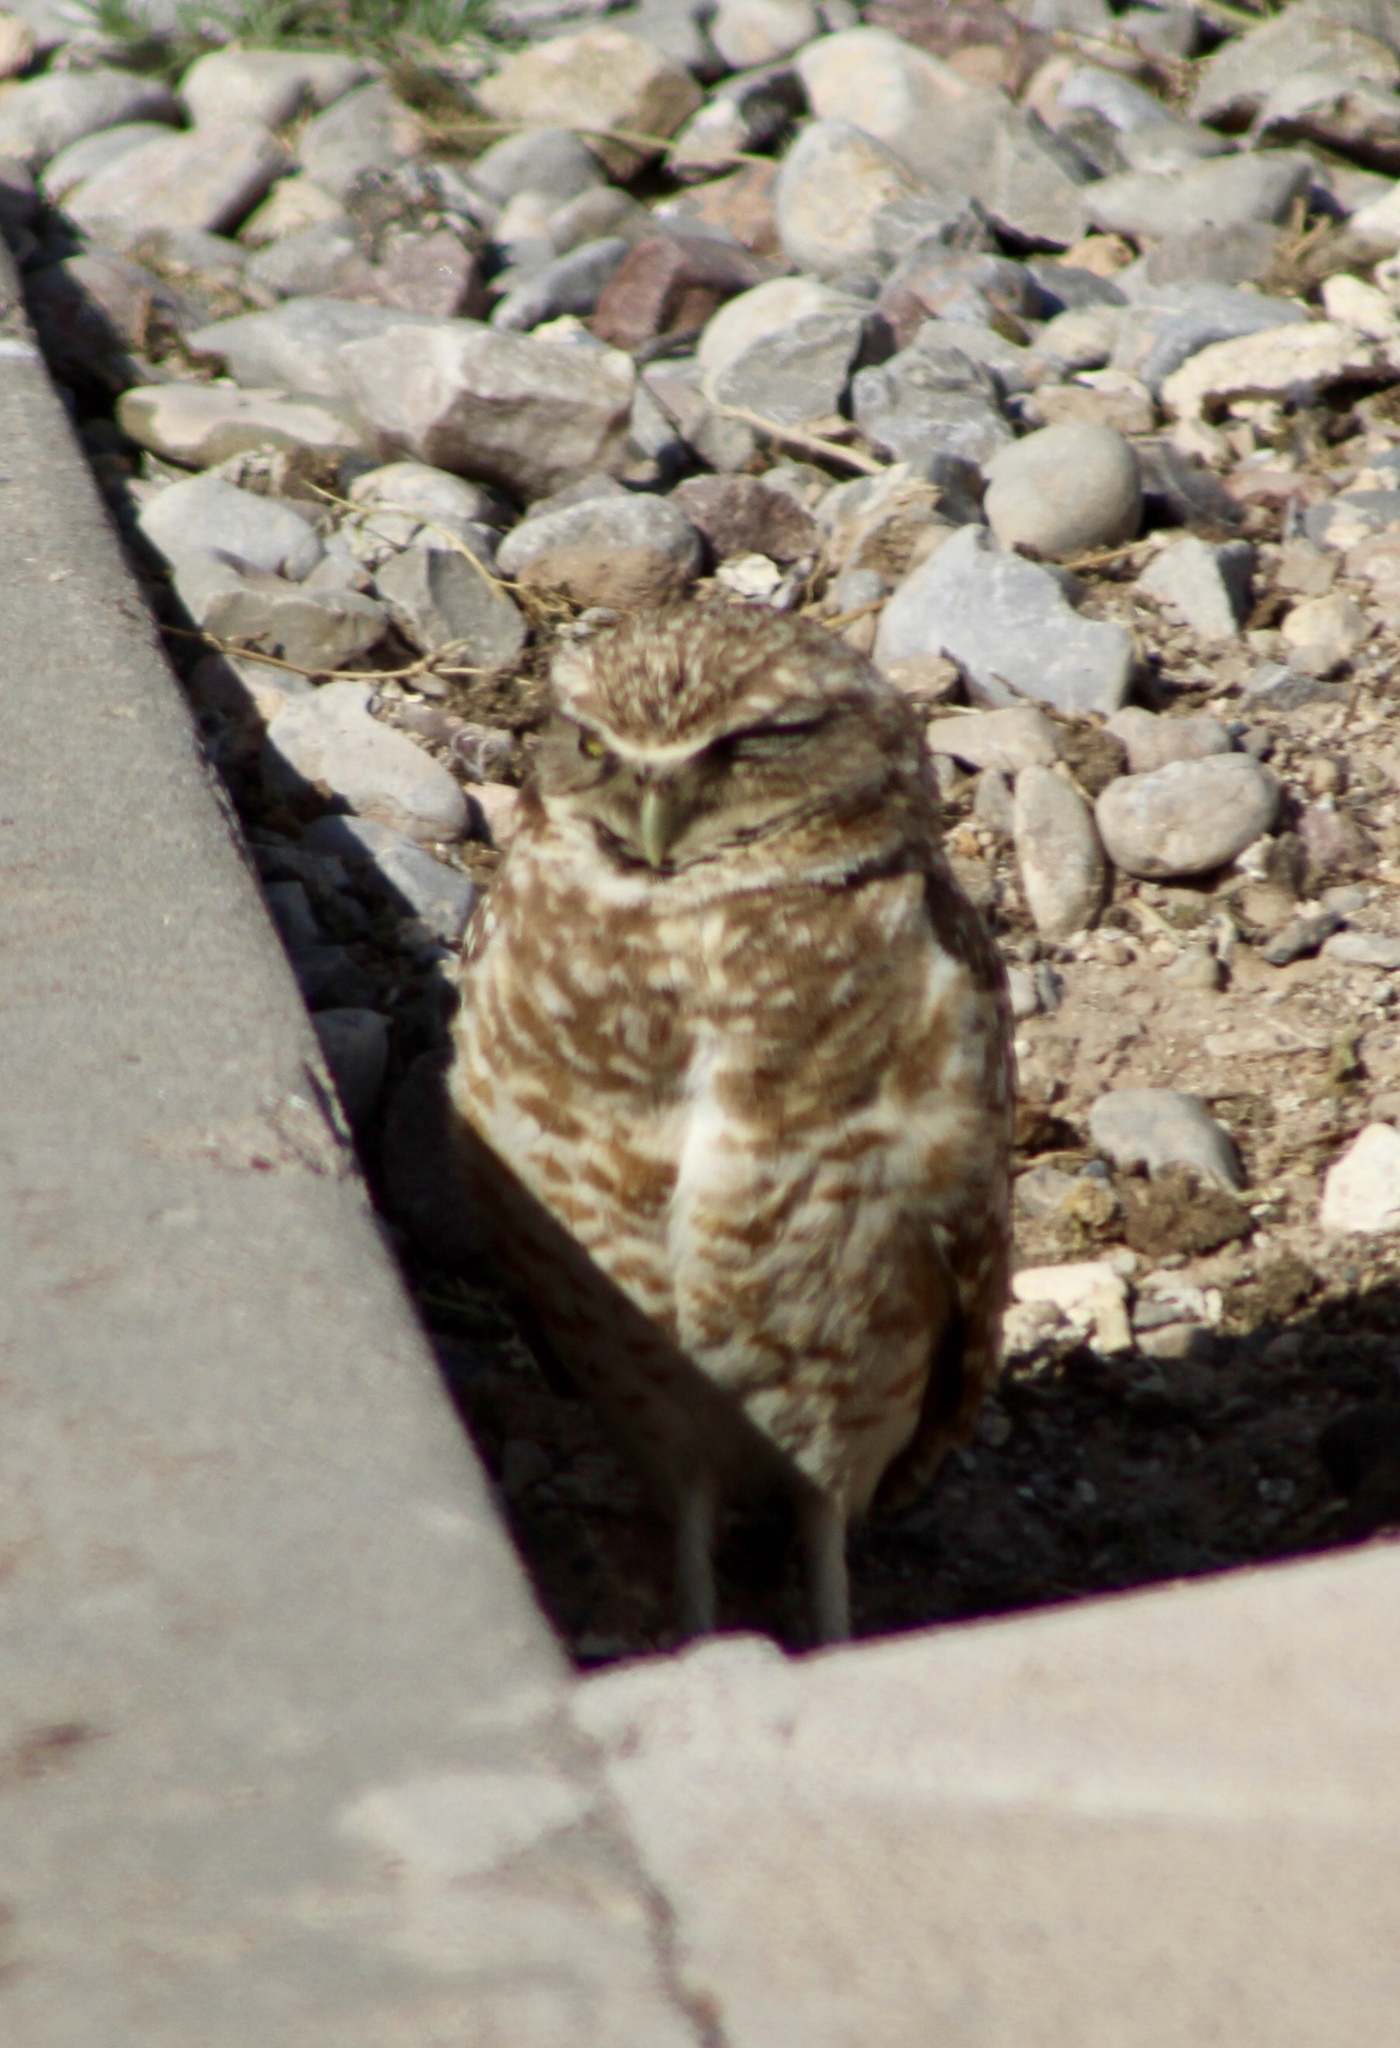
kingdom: Animalia
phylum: Chordata
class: Aves
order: Strigiformes
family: Strigidae
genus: Athene
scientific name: Athene cunicularia
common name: Burrowing owl
